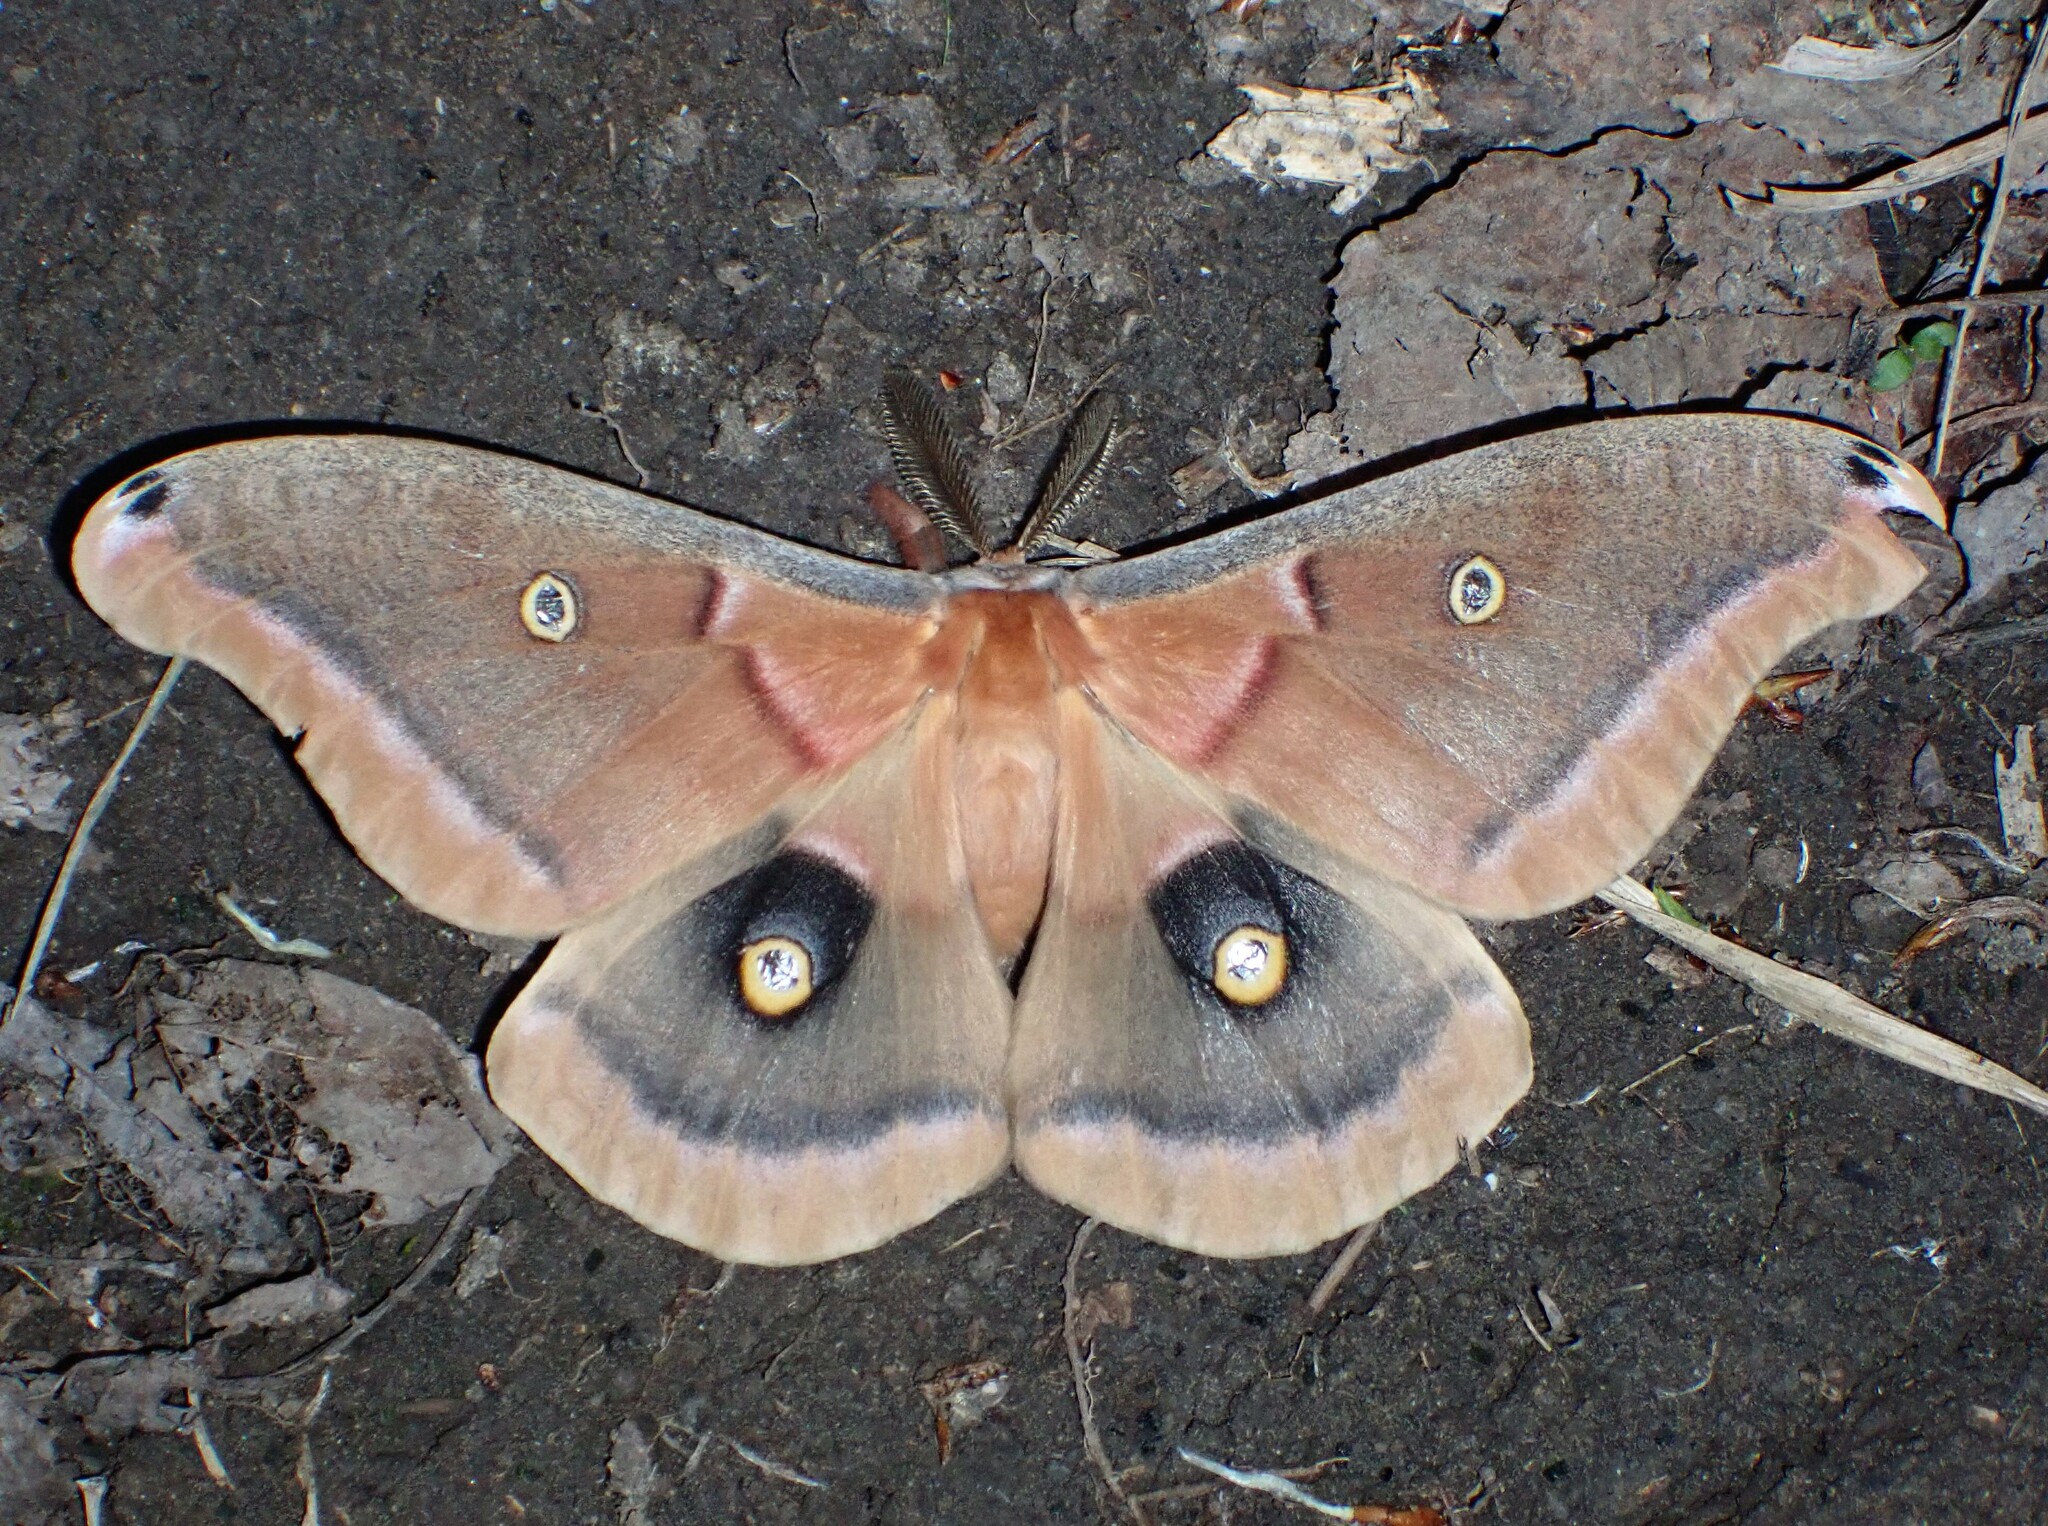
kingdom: Animalia
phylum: Arthropoda
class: Insecta
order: Lepidoptera
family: Saturniidae
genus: Antheraea
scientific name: Antheraea polyphemus
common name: Polyphemus moth
